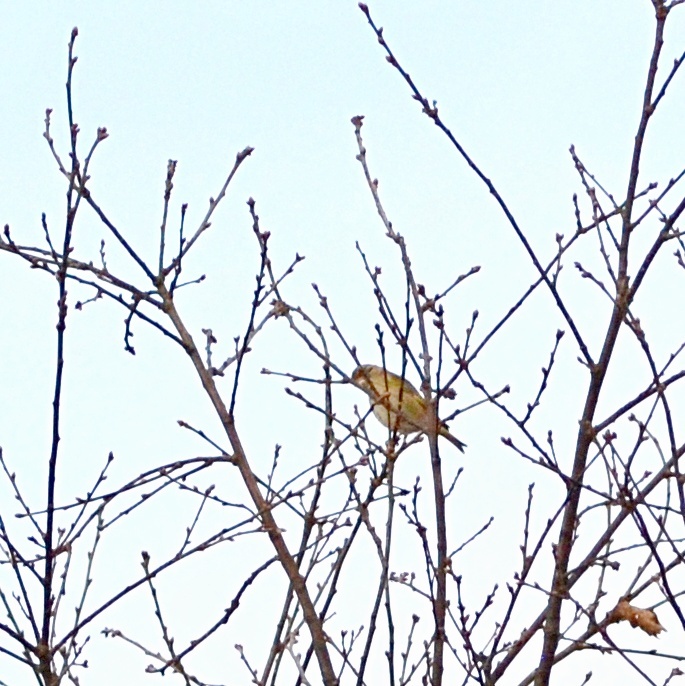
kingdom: Plantae
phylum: Tracheophyta
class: Liliopsida
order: Poales
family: Poaceae
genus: Chloris
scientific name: Chloris chloris
